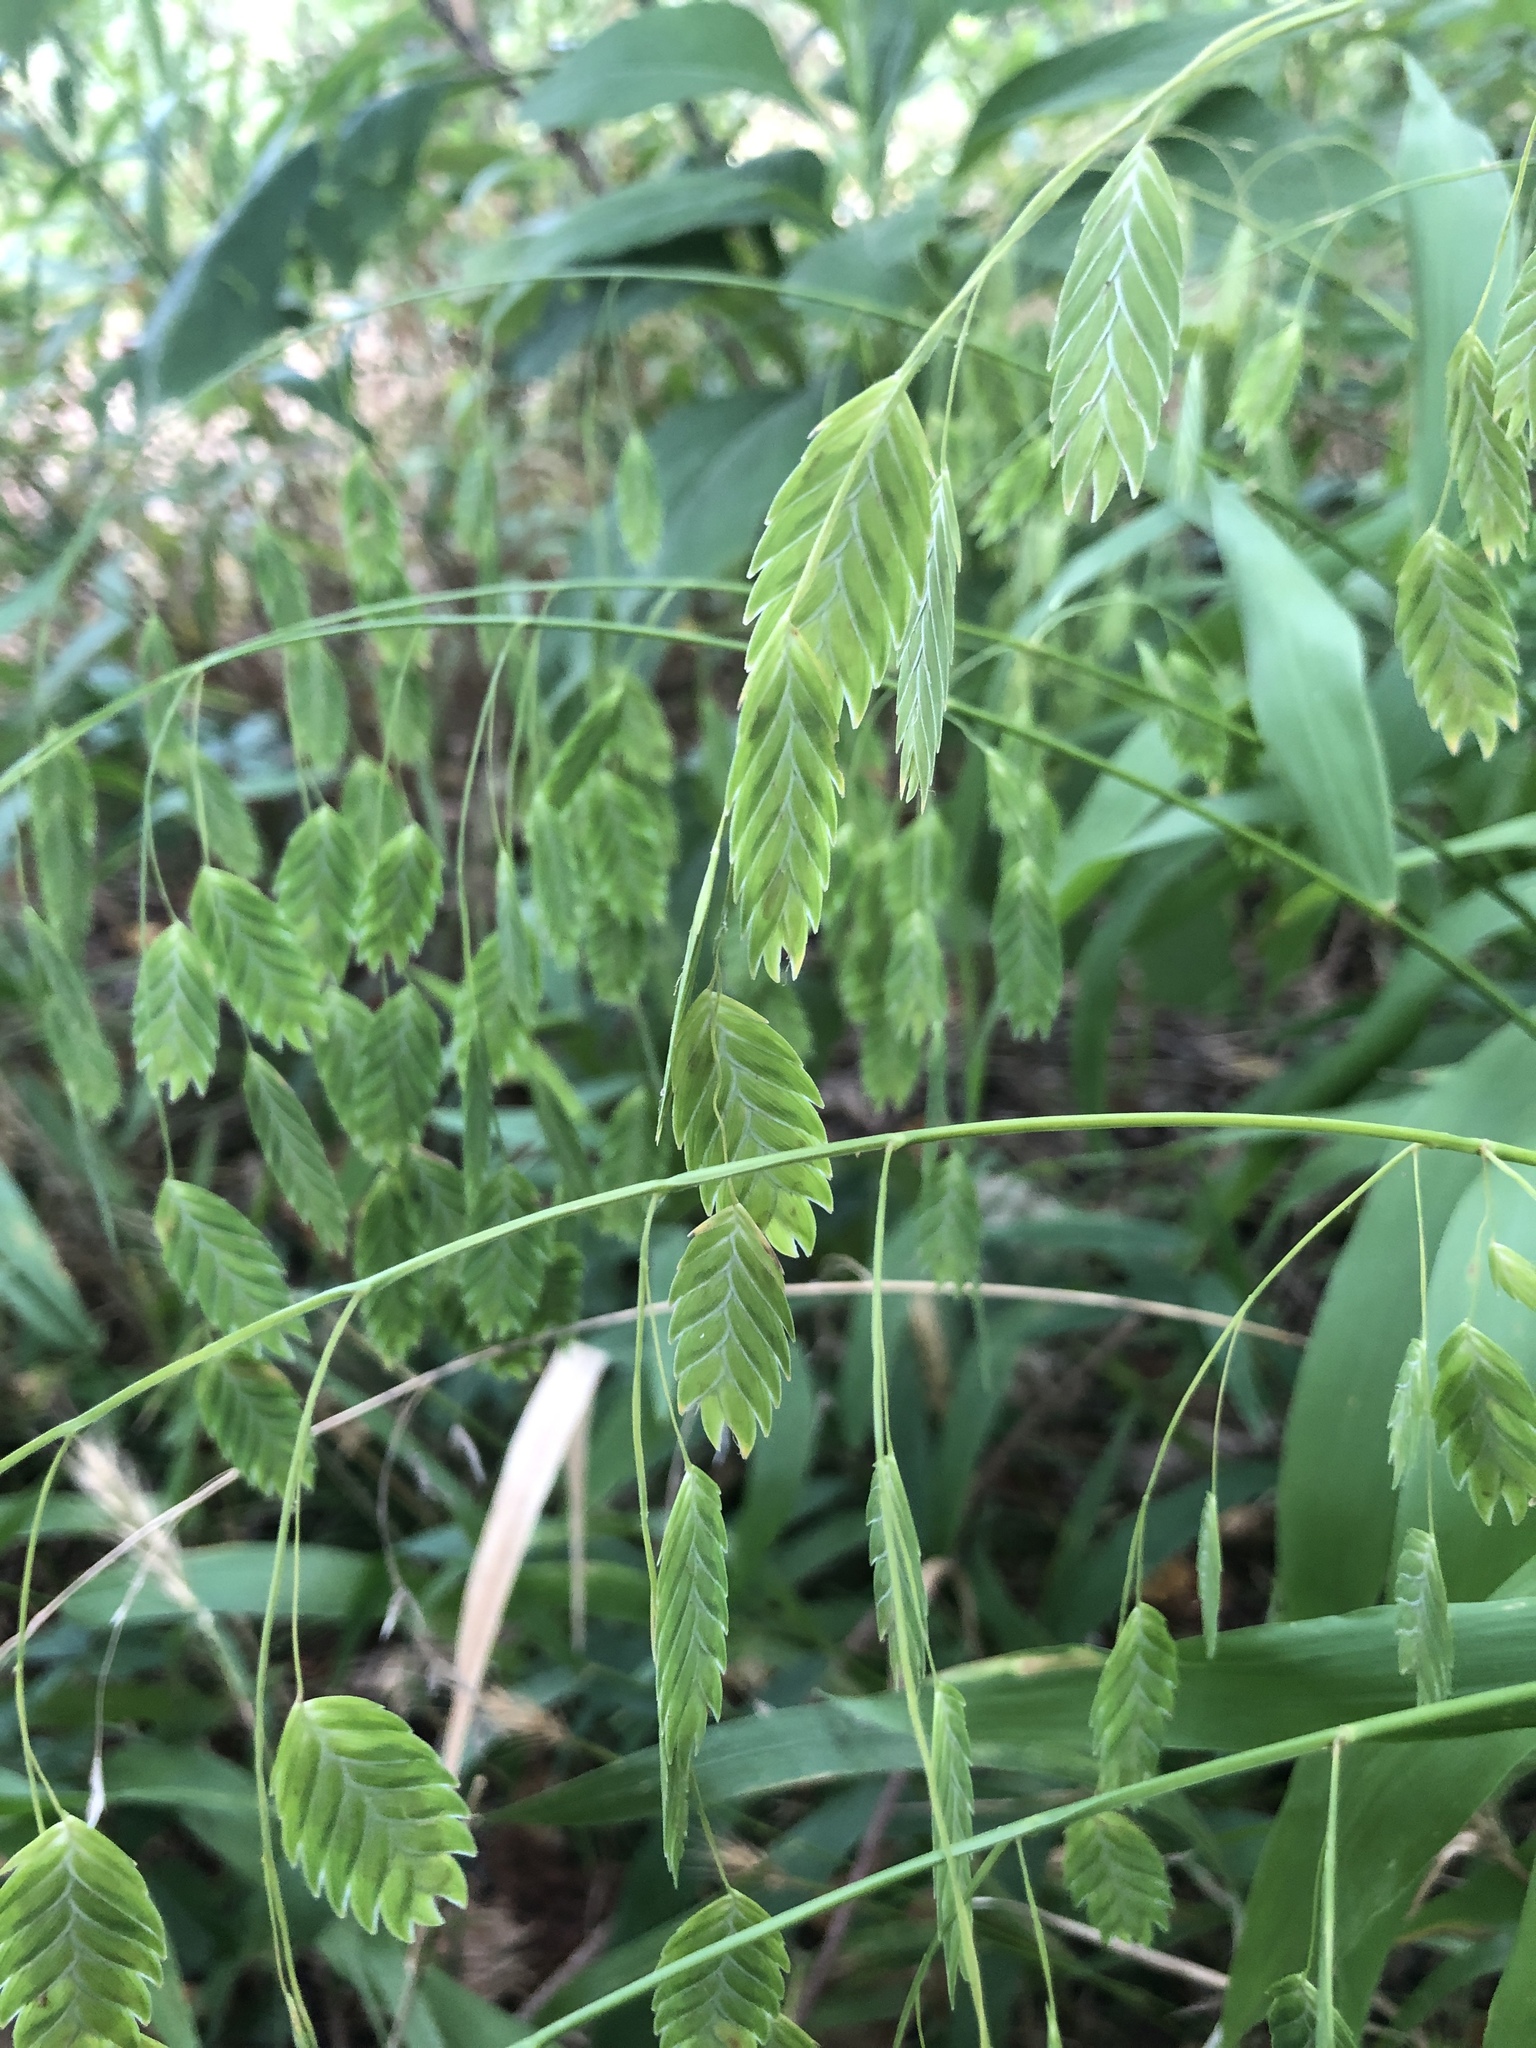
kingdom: Plantae
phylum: Tracheophyta
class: Liliopsida
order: Poales
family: Poaceae
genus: Chasmanthium
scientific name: Chasmanthium latifolium
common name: Broad-leaved chasmanthium
